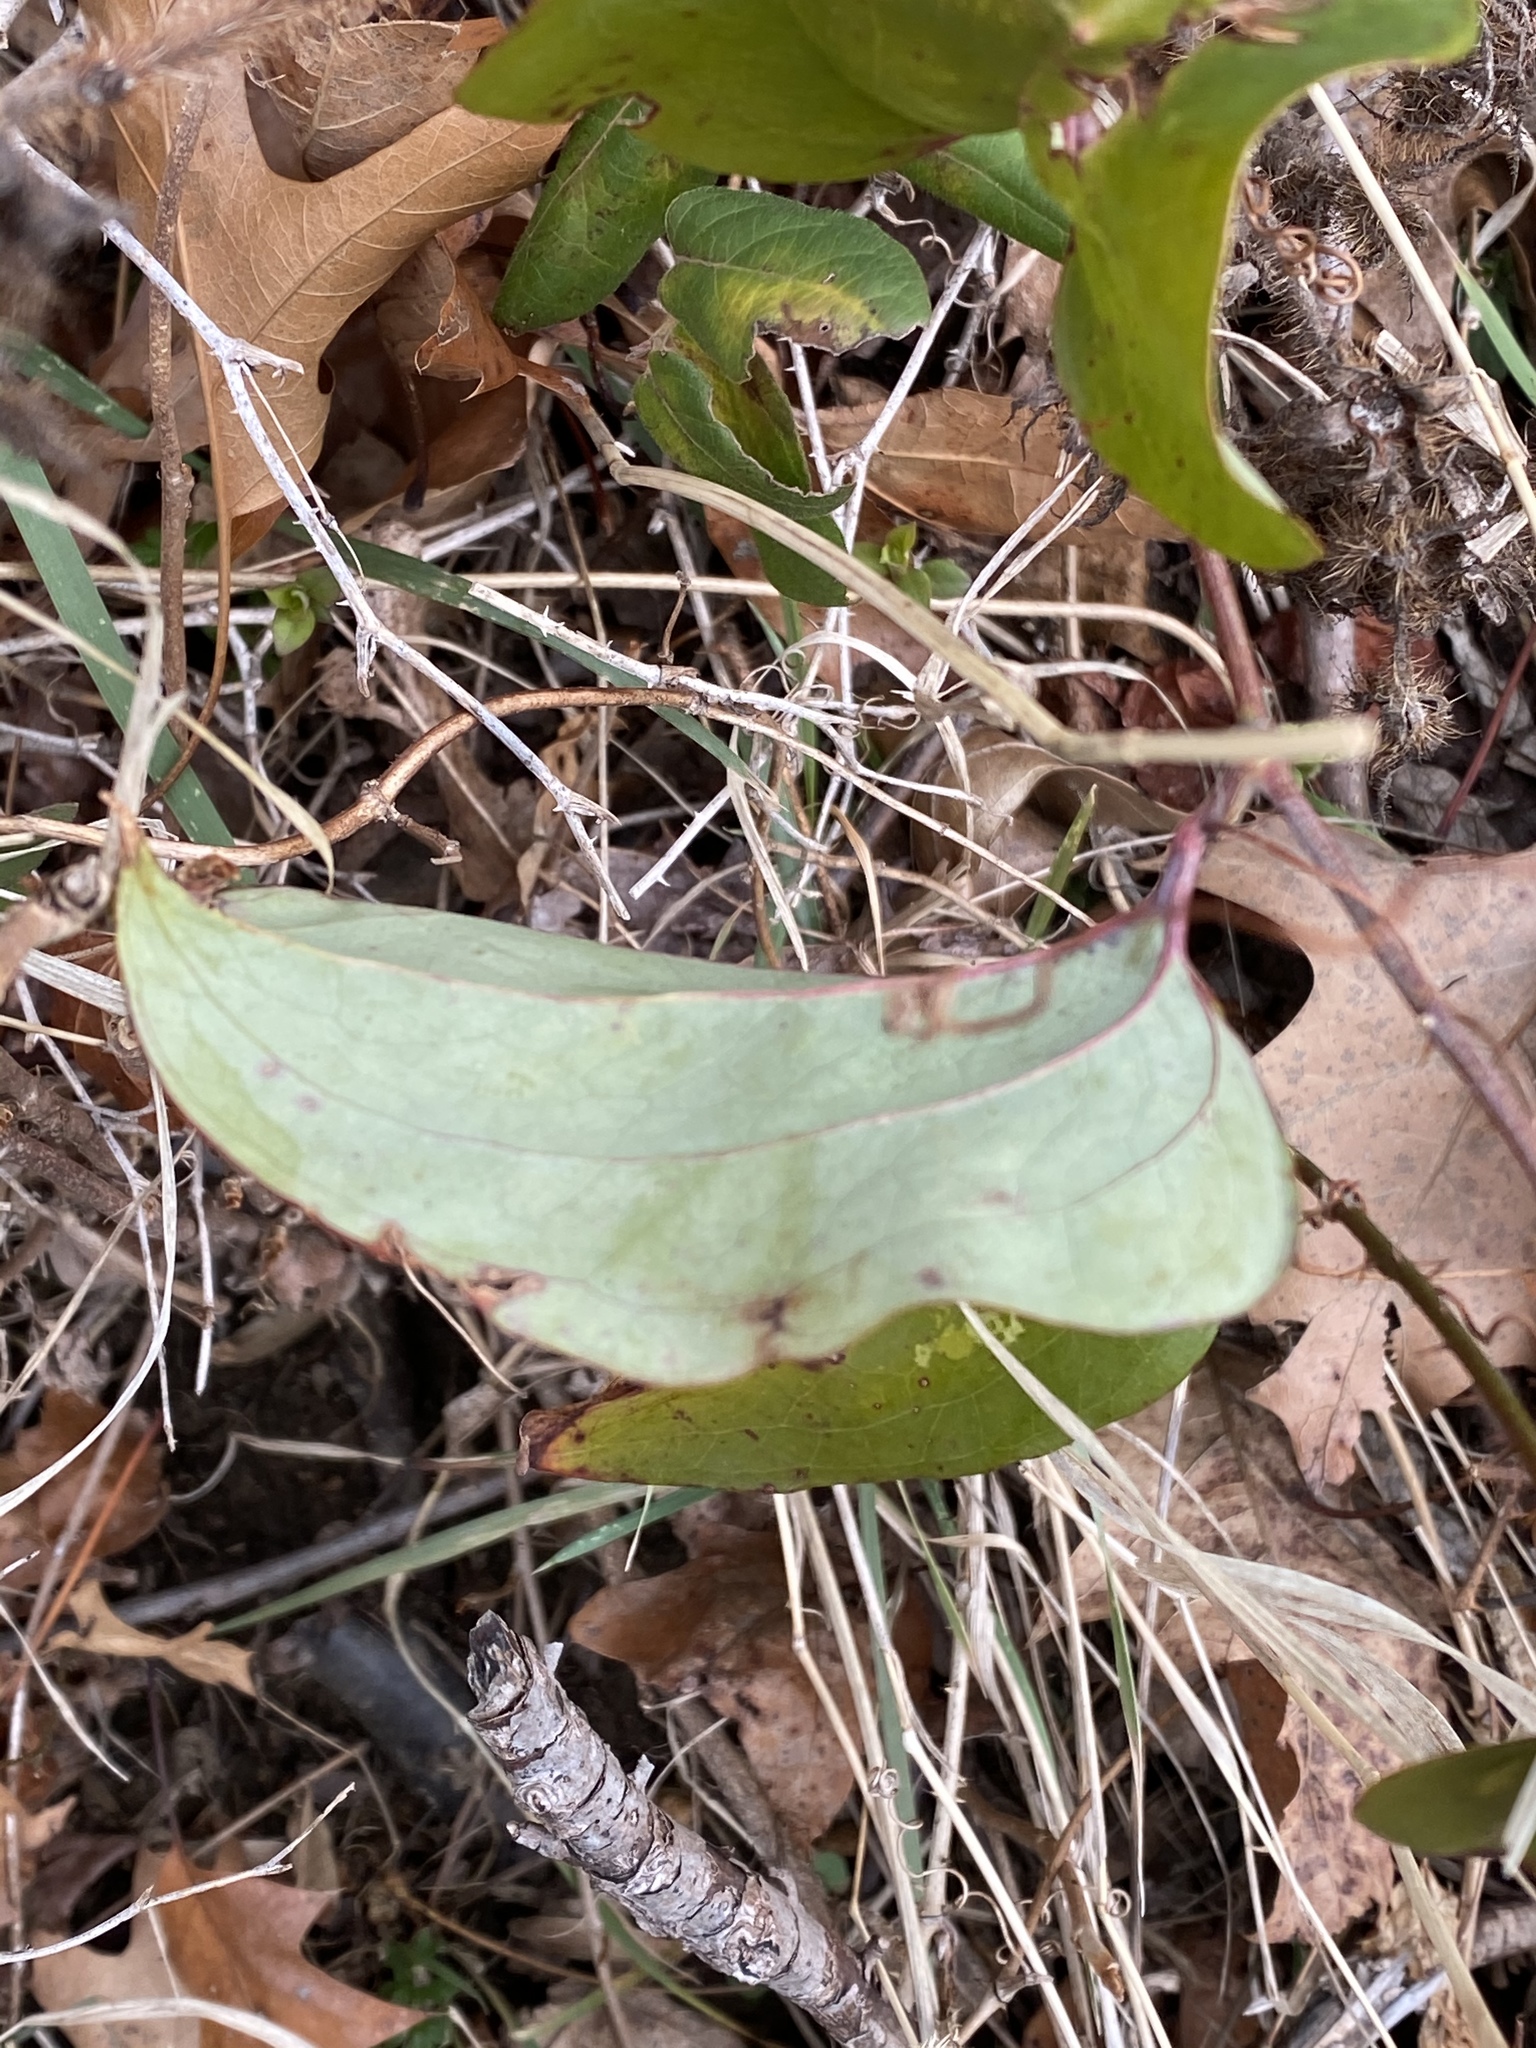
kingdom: Plantae
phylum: Tracheophyta
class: Liliopsida
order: Liliales
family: Smilacaceae
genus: Smilax
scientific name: Smilax glauca
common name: Cat greenbrier
